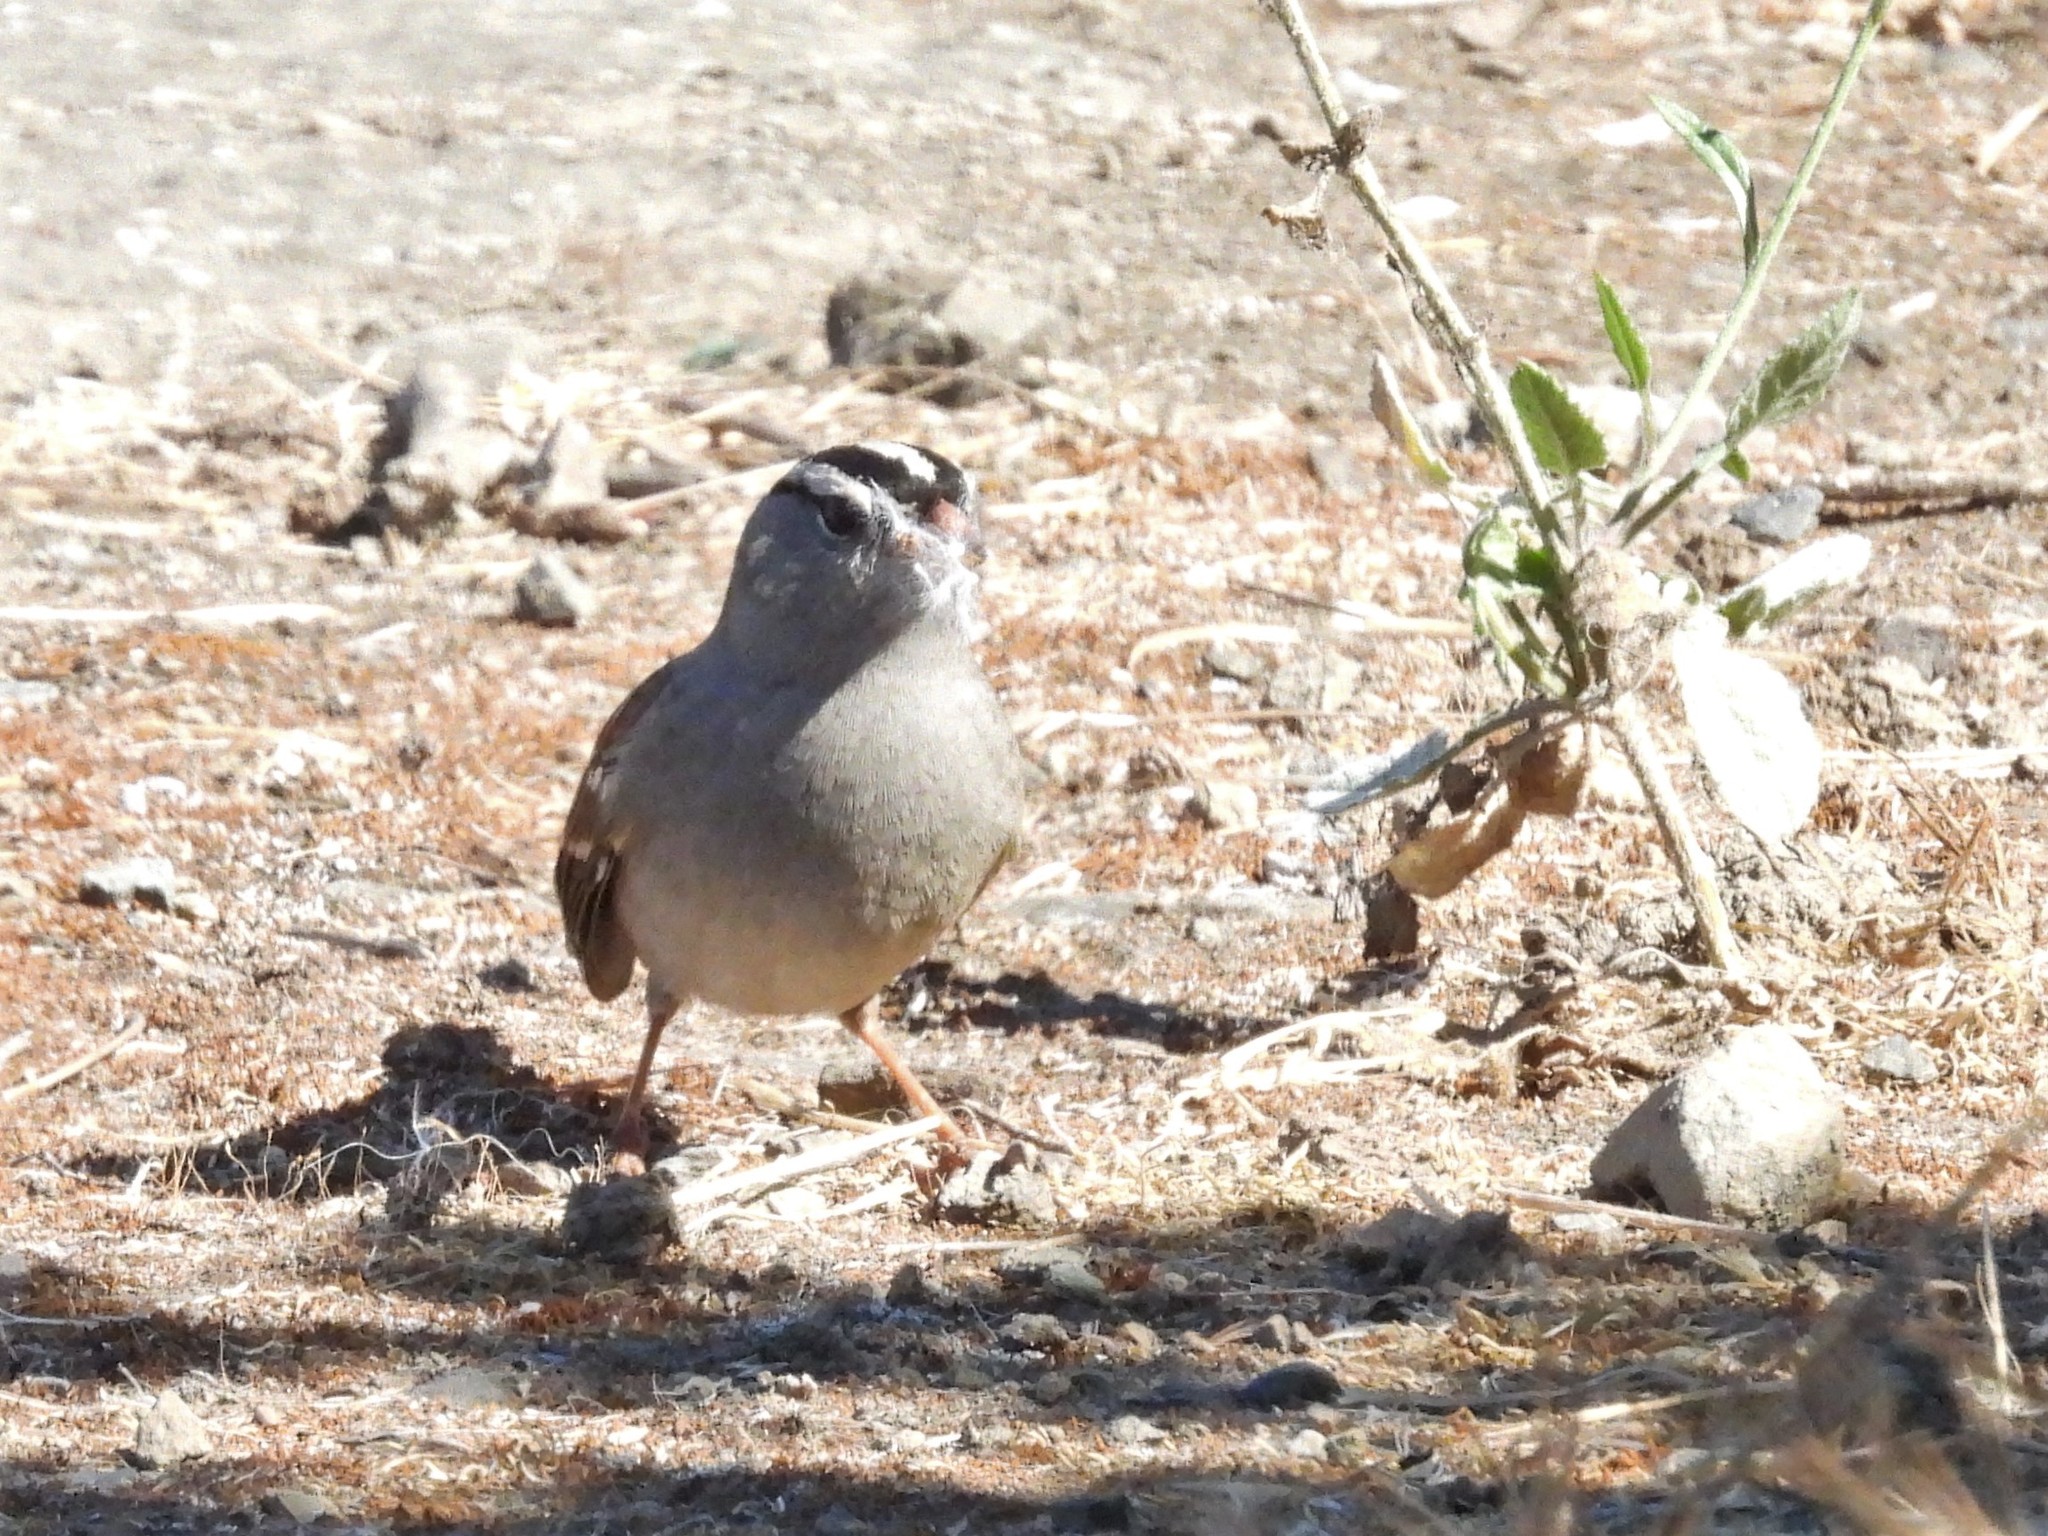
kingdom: Animalia
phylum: Chordata
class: Aves
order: Passeriformes
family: Passerellidae
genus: Zonotrichia
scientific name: Zonotrichia leucophrys
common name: White-crowned sparrow
